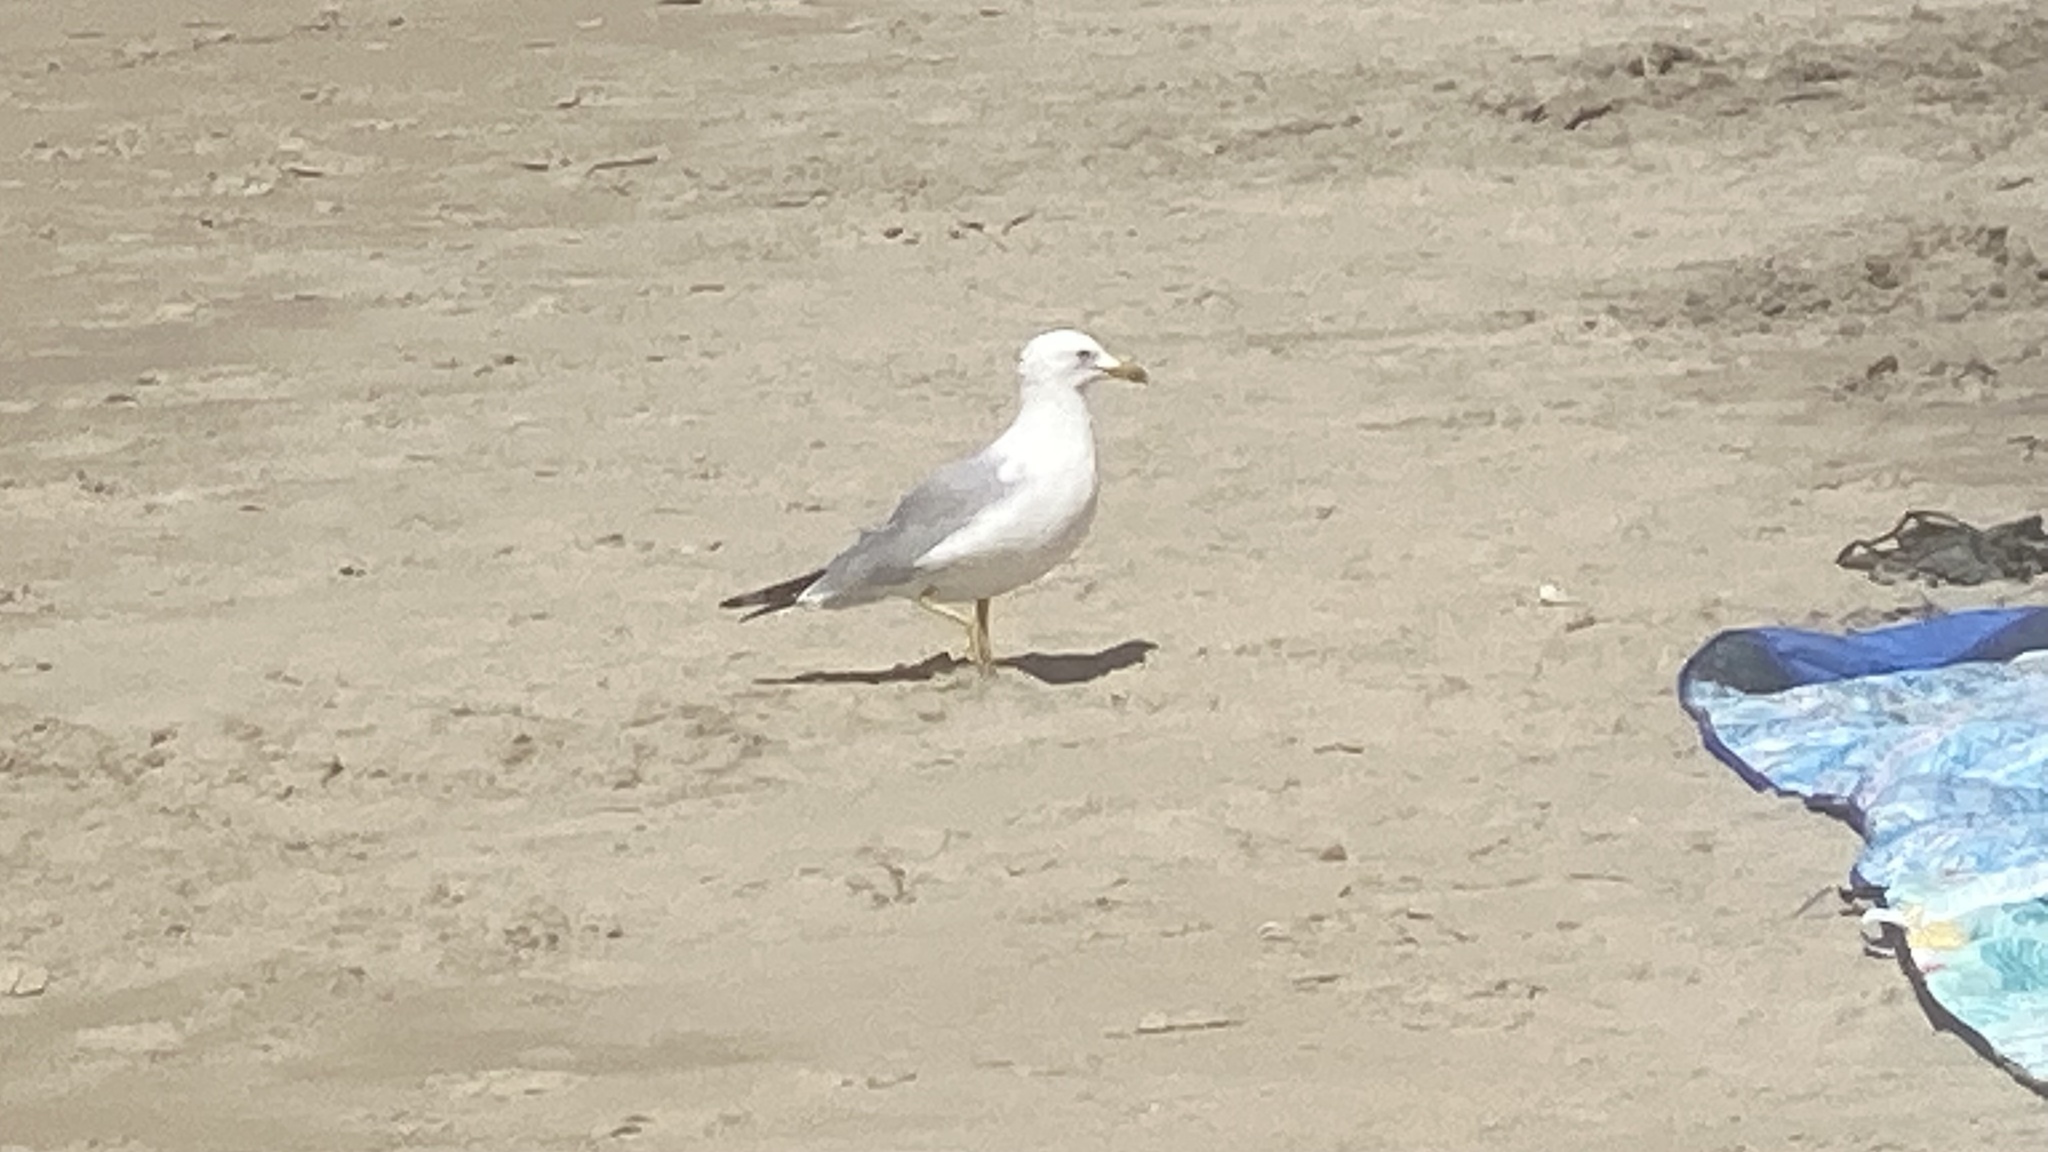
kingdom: Animalia
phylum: Chordata
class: Aves
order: Charadriiformes
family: Laridae
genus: Larus
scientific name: Larus delawarensis
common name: Ring-billed gull
